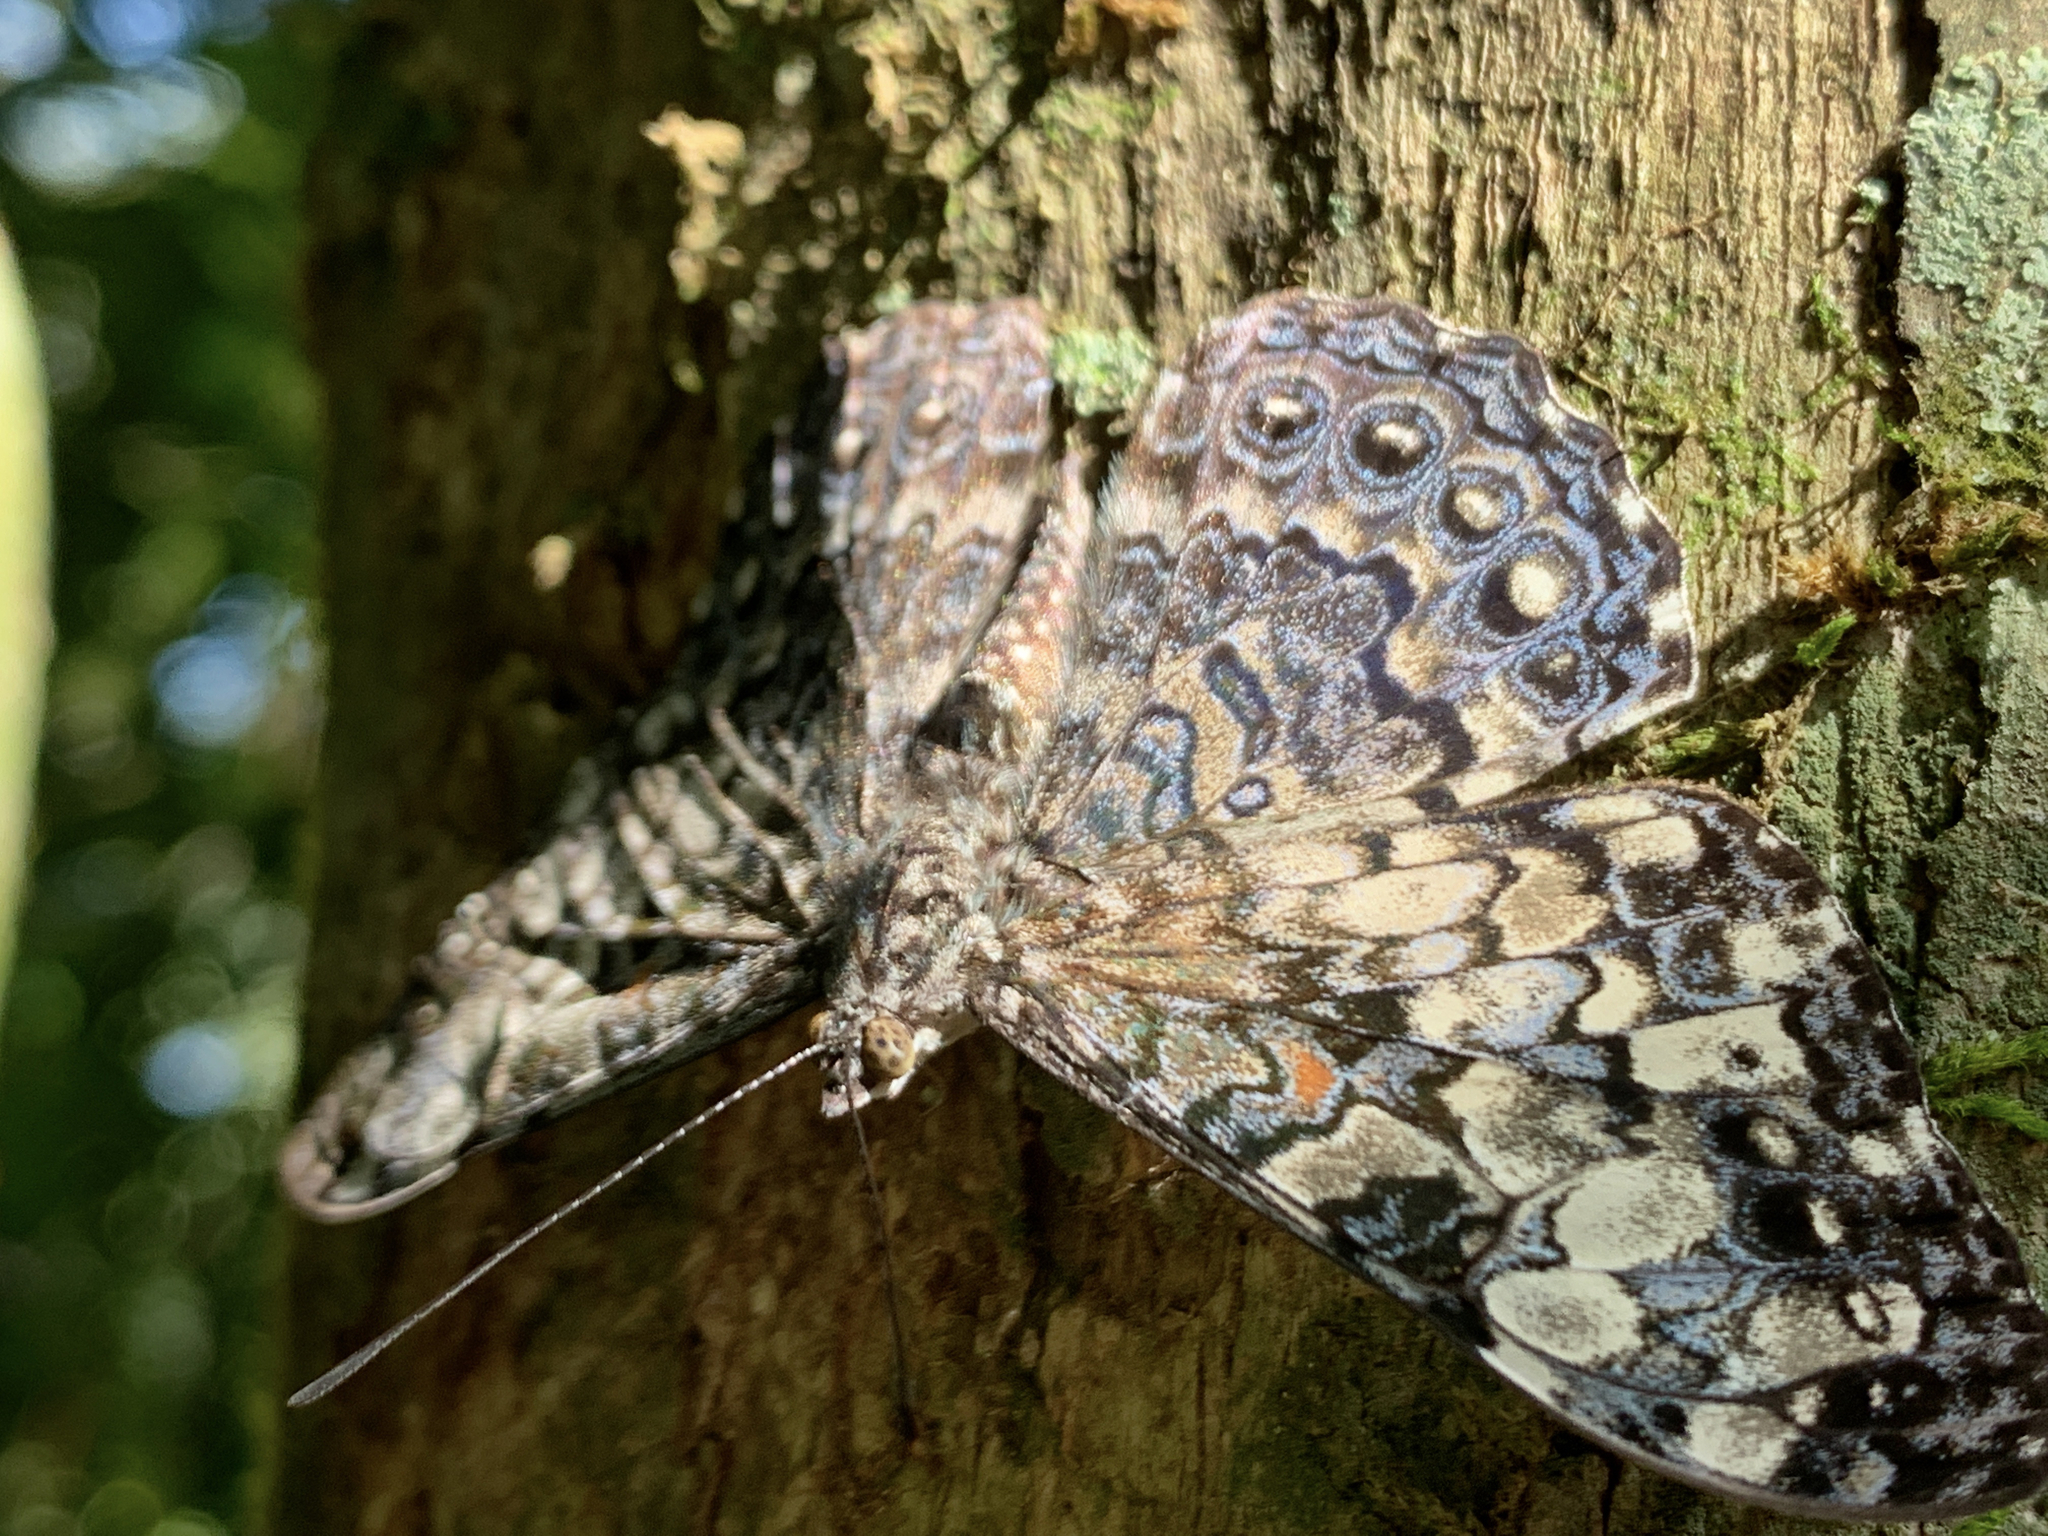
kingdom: Animalia
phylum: Arthropoda
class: Insecta
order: Lepidoptera
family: Nymphalidae
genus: Hamadryas
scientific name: Hamadryas epinome
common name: Epinome cracker
